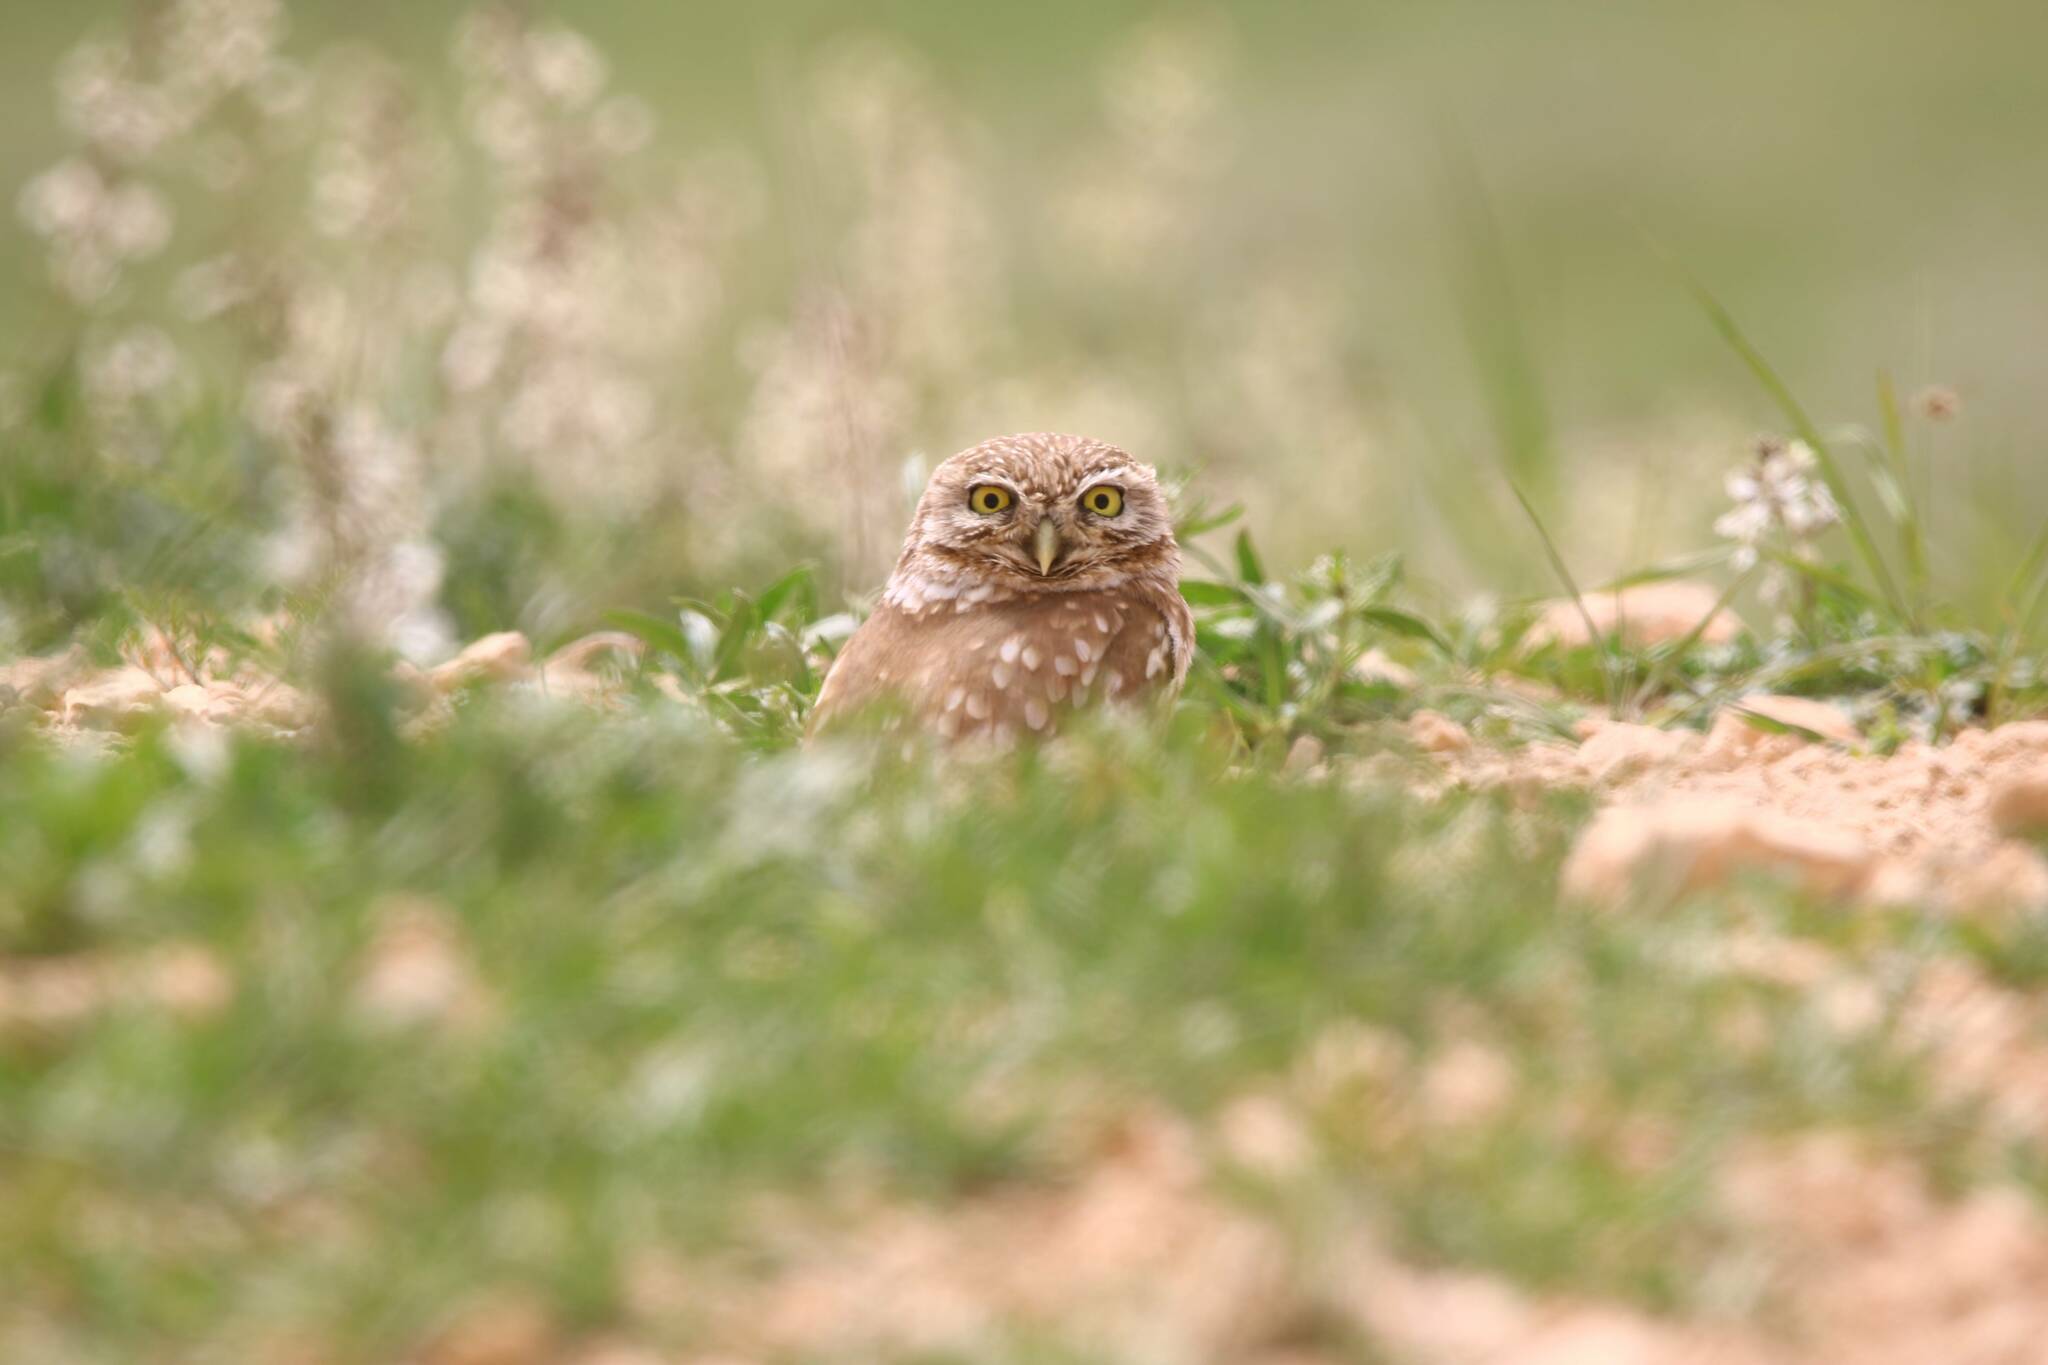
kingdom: Animalia
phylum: Chordata
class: Aves
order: Strigiformes
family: Strigidae
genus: Athene
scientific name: Athene noctua
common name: Little owl
